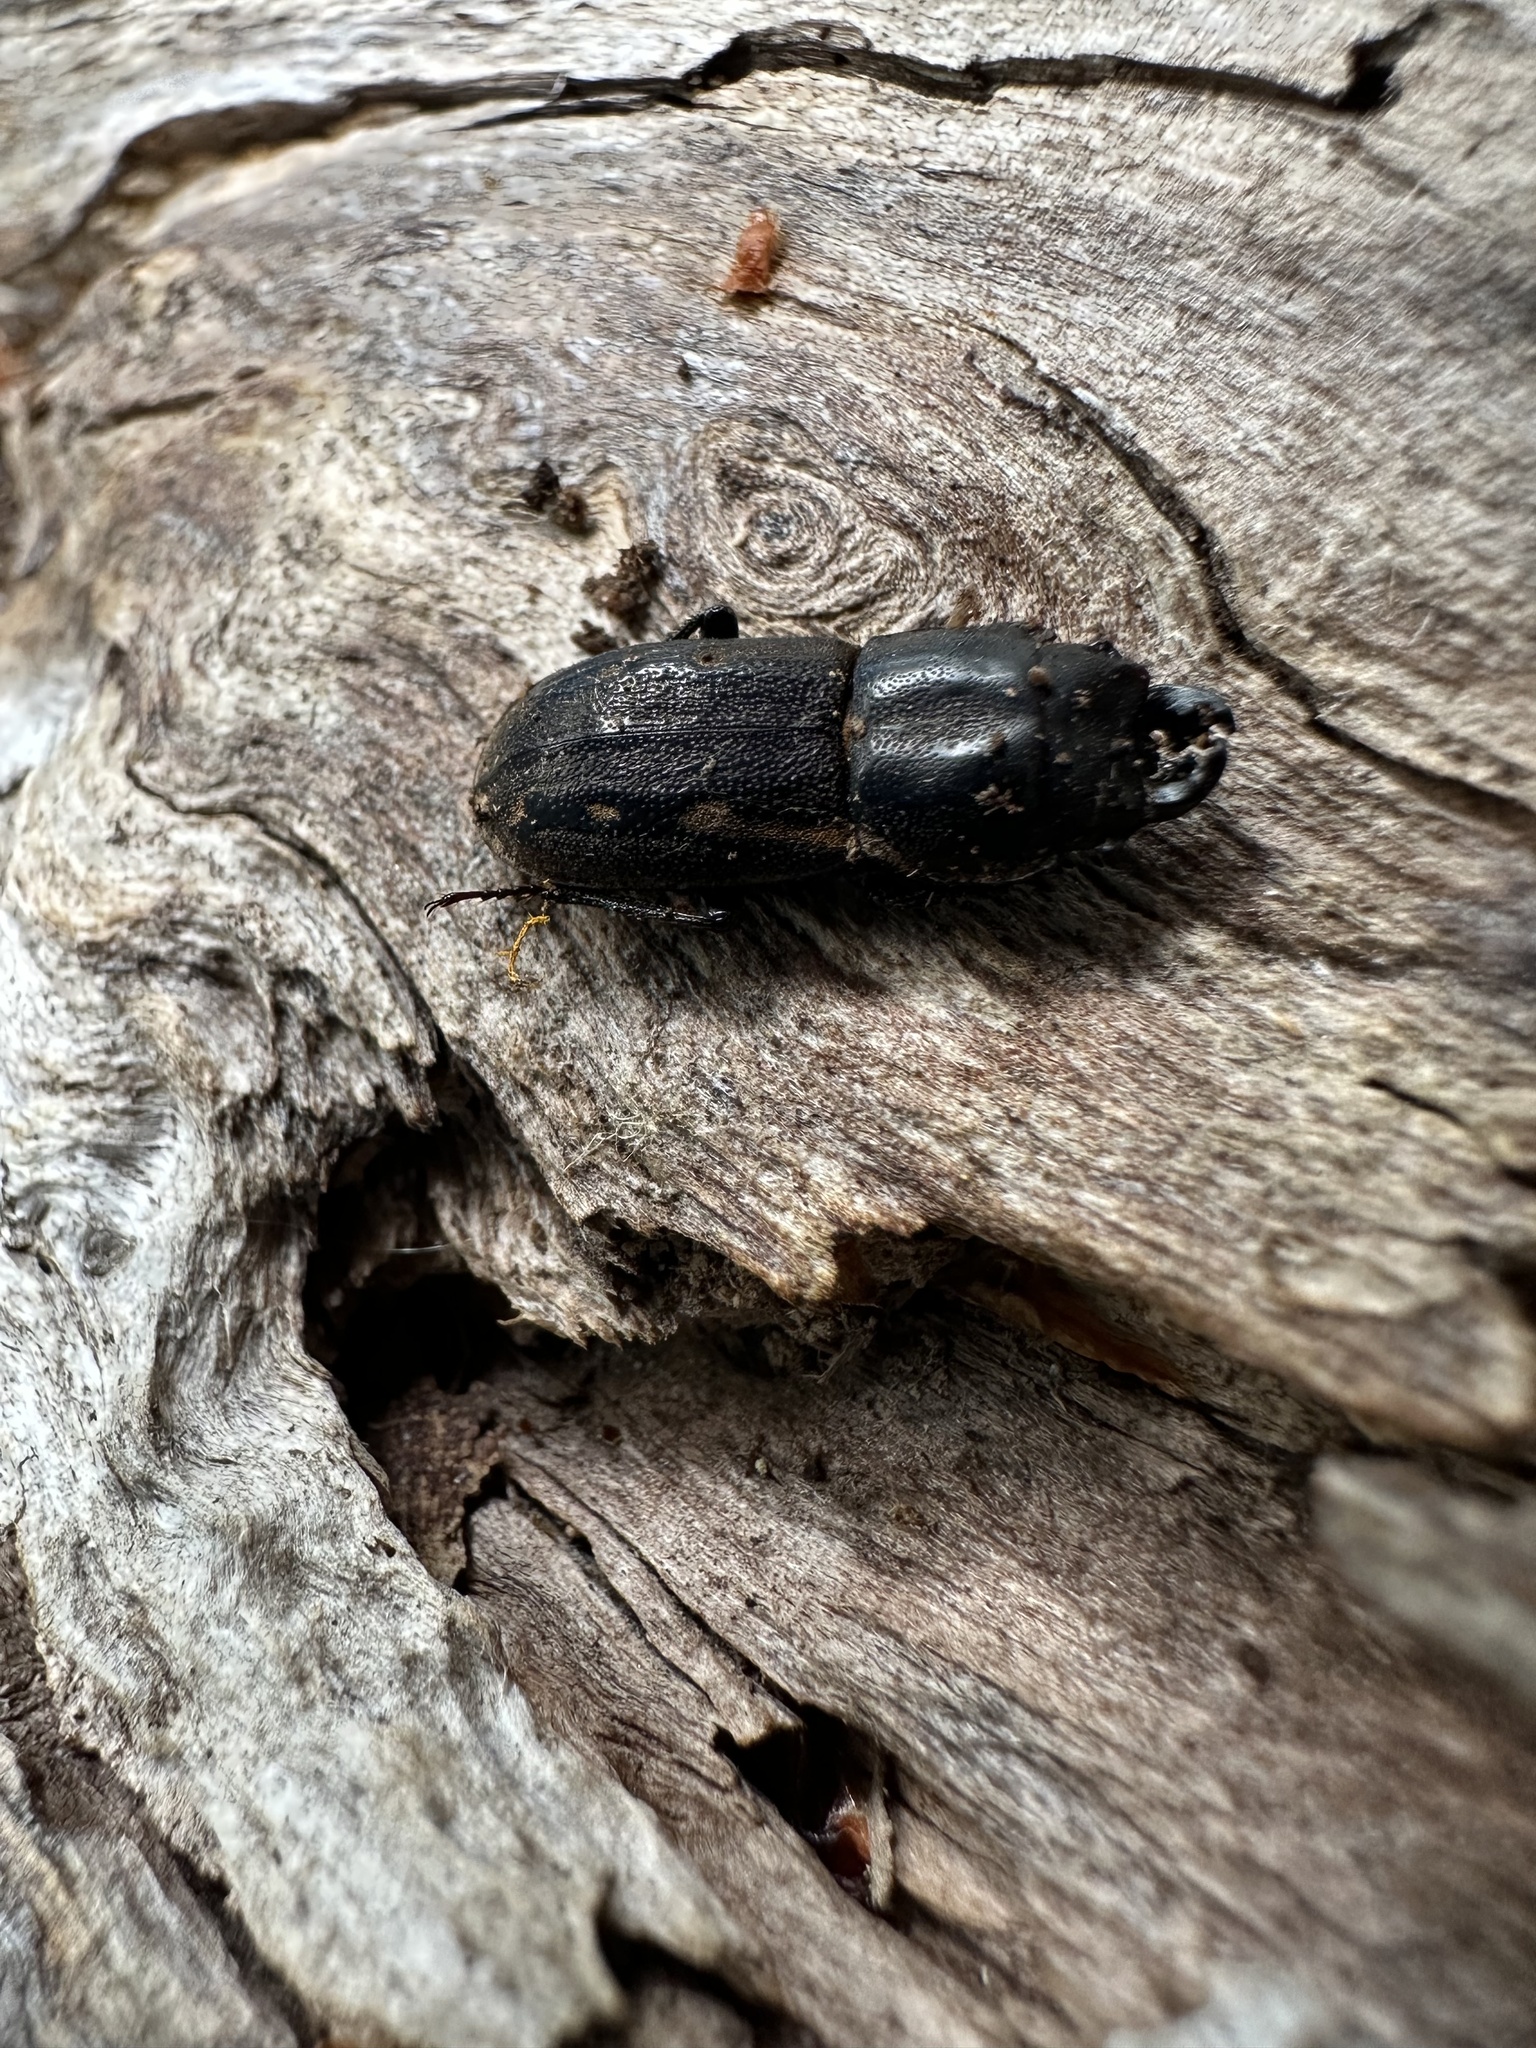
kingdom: Animalia
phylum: Arthropoda
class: Insecta
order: Coleoptera
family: Lucanidae
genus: Erichius
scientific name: Erichius calverti
